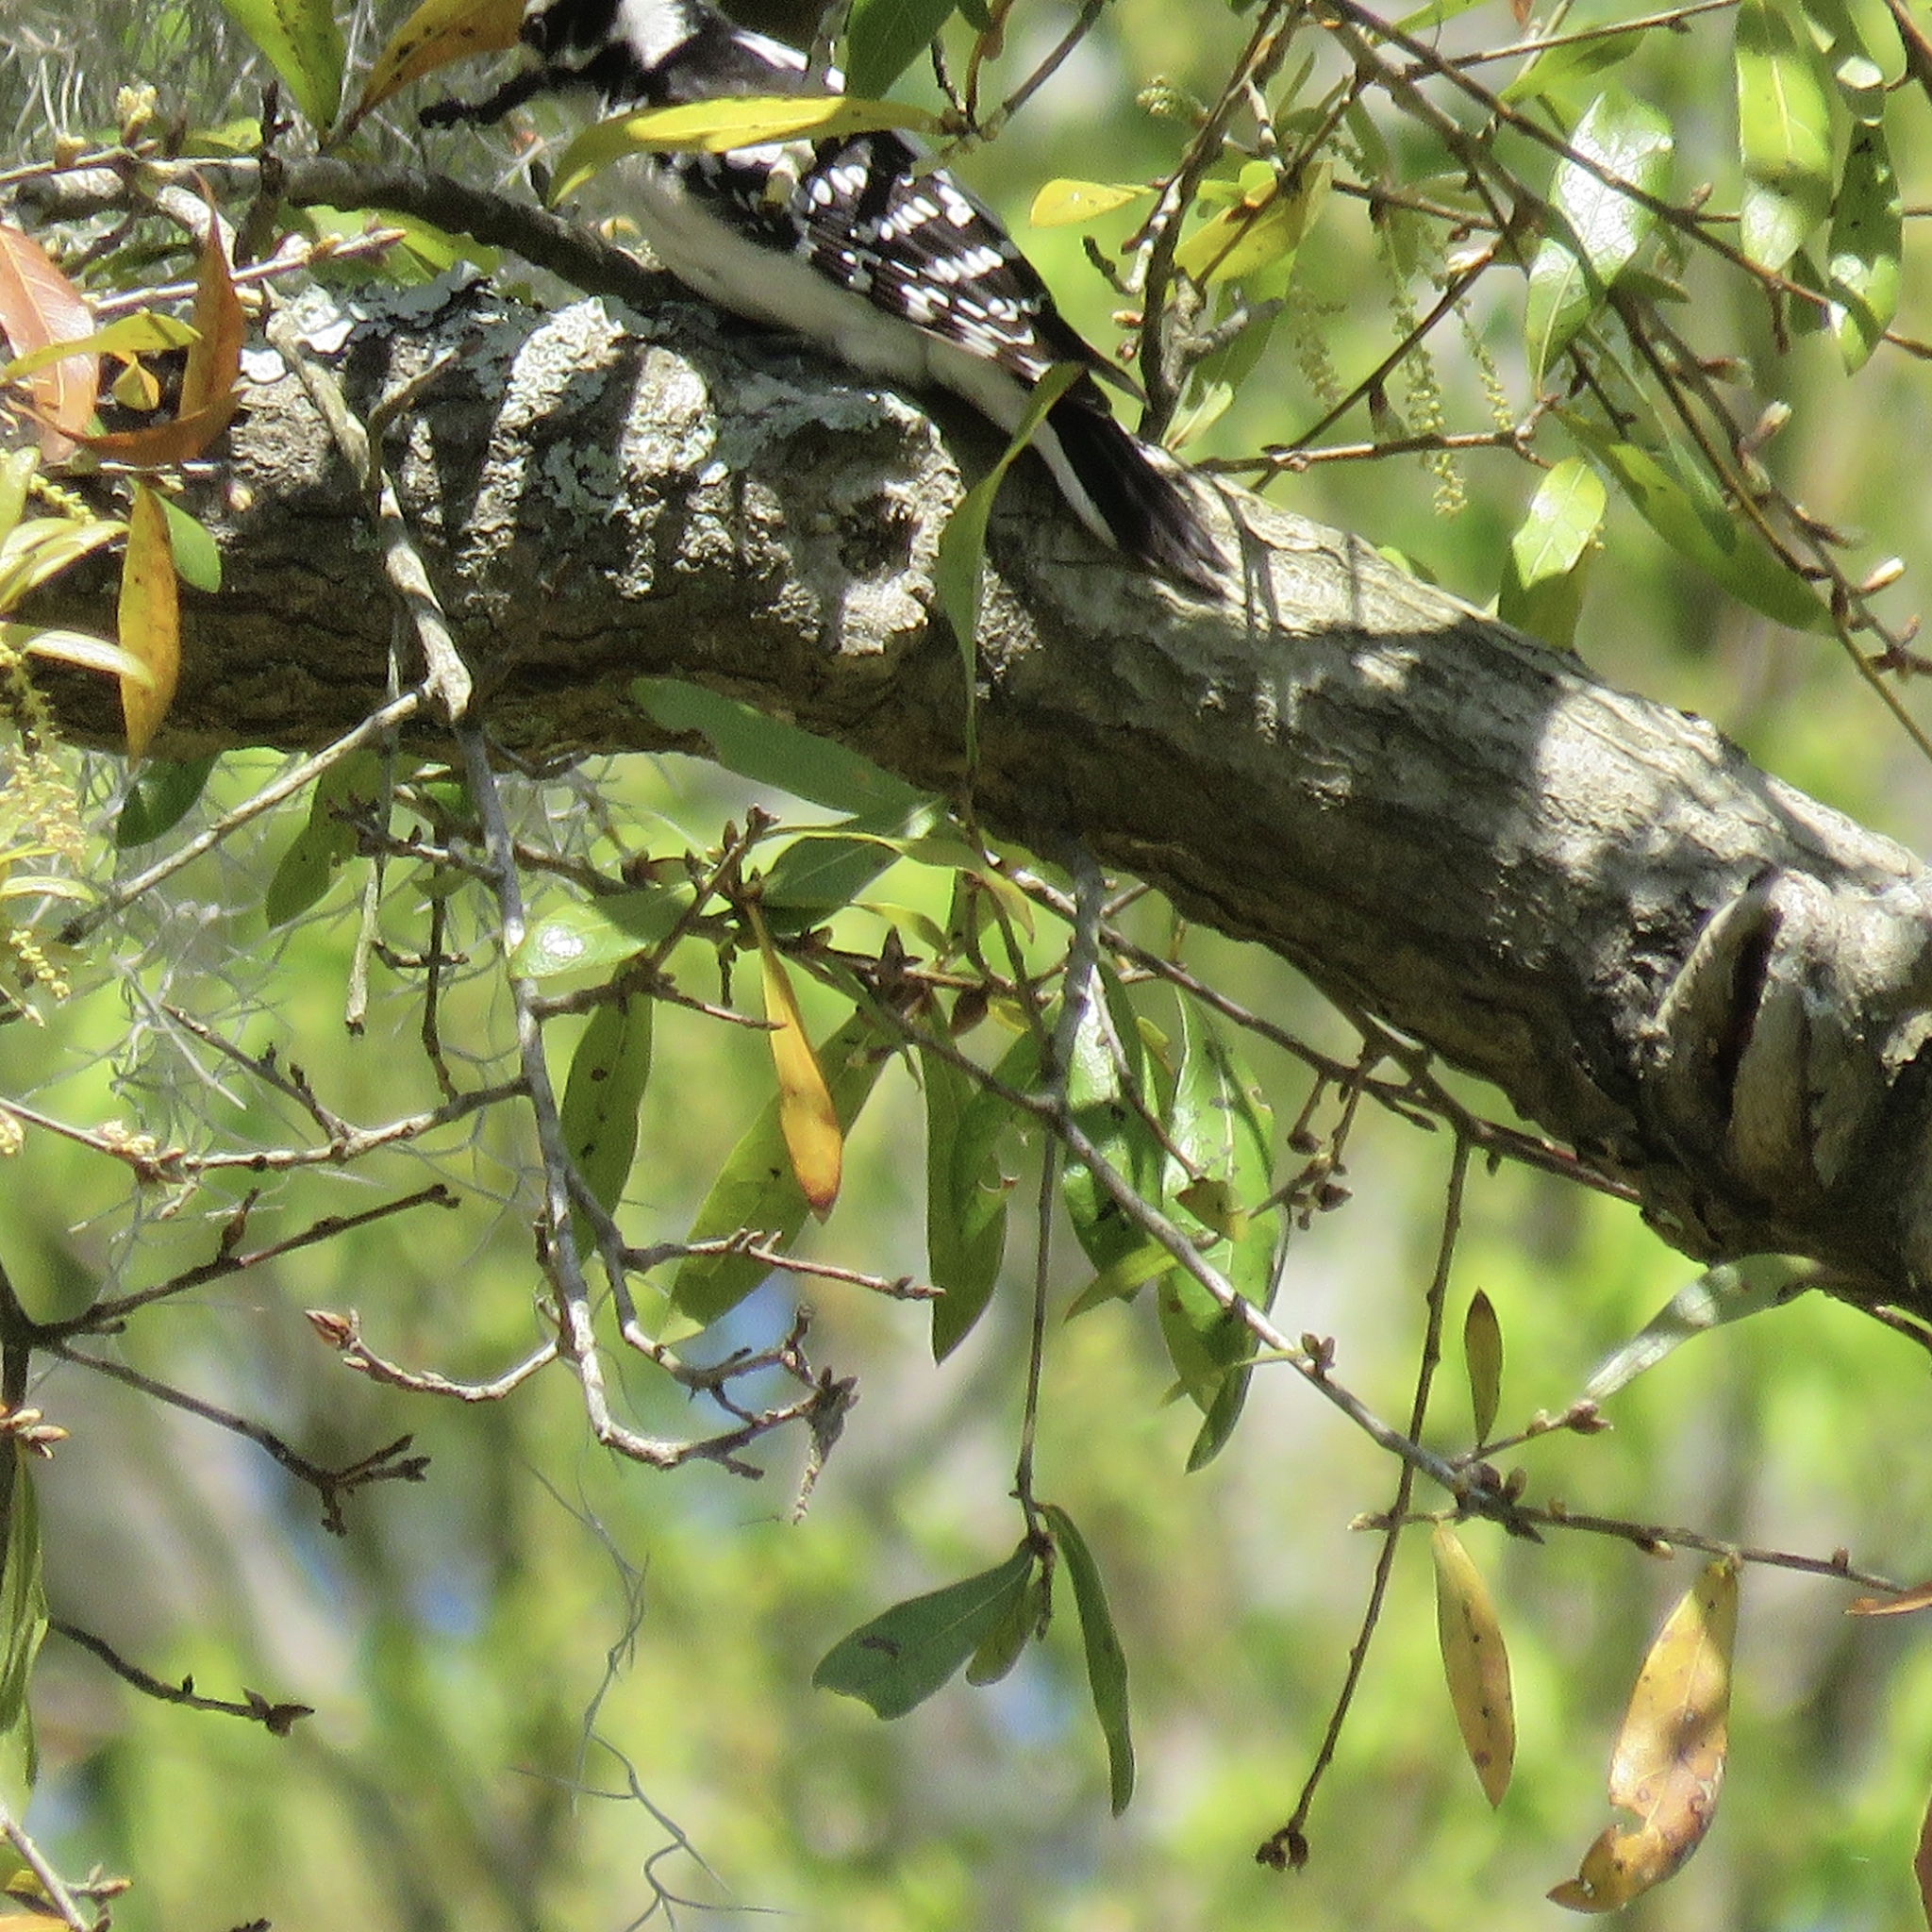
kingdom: Animalia
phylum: Chordata
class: Aves
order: Piciformes
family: Picidae
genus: Dryobates
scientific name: Dryobates pubescens
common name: Downy woodpecker
